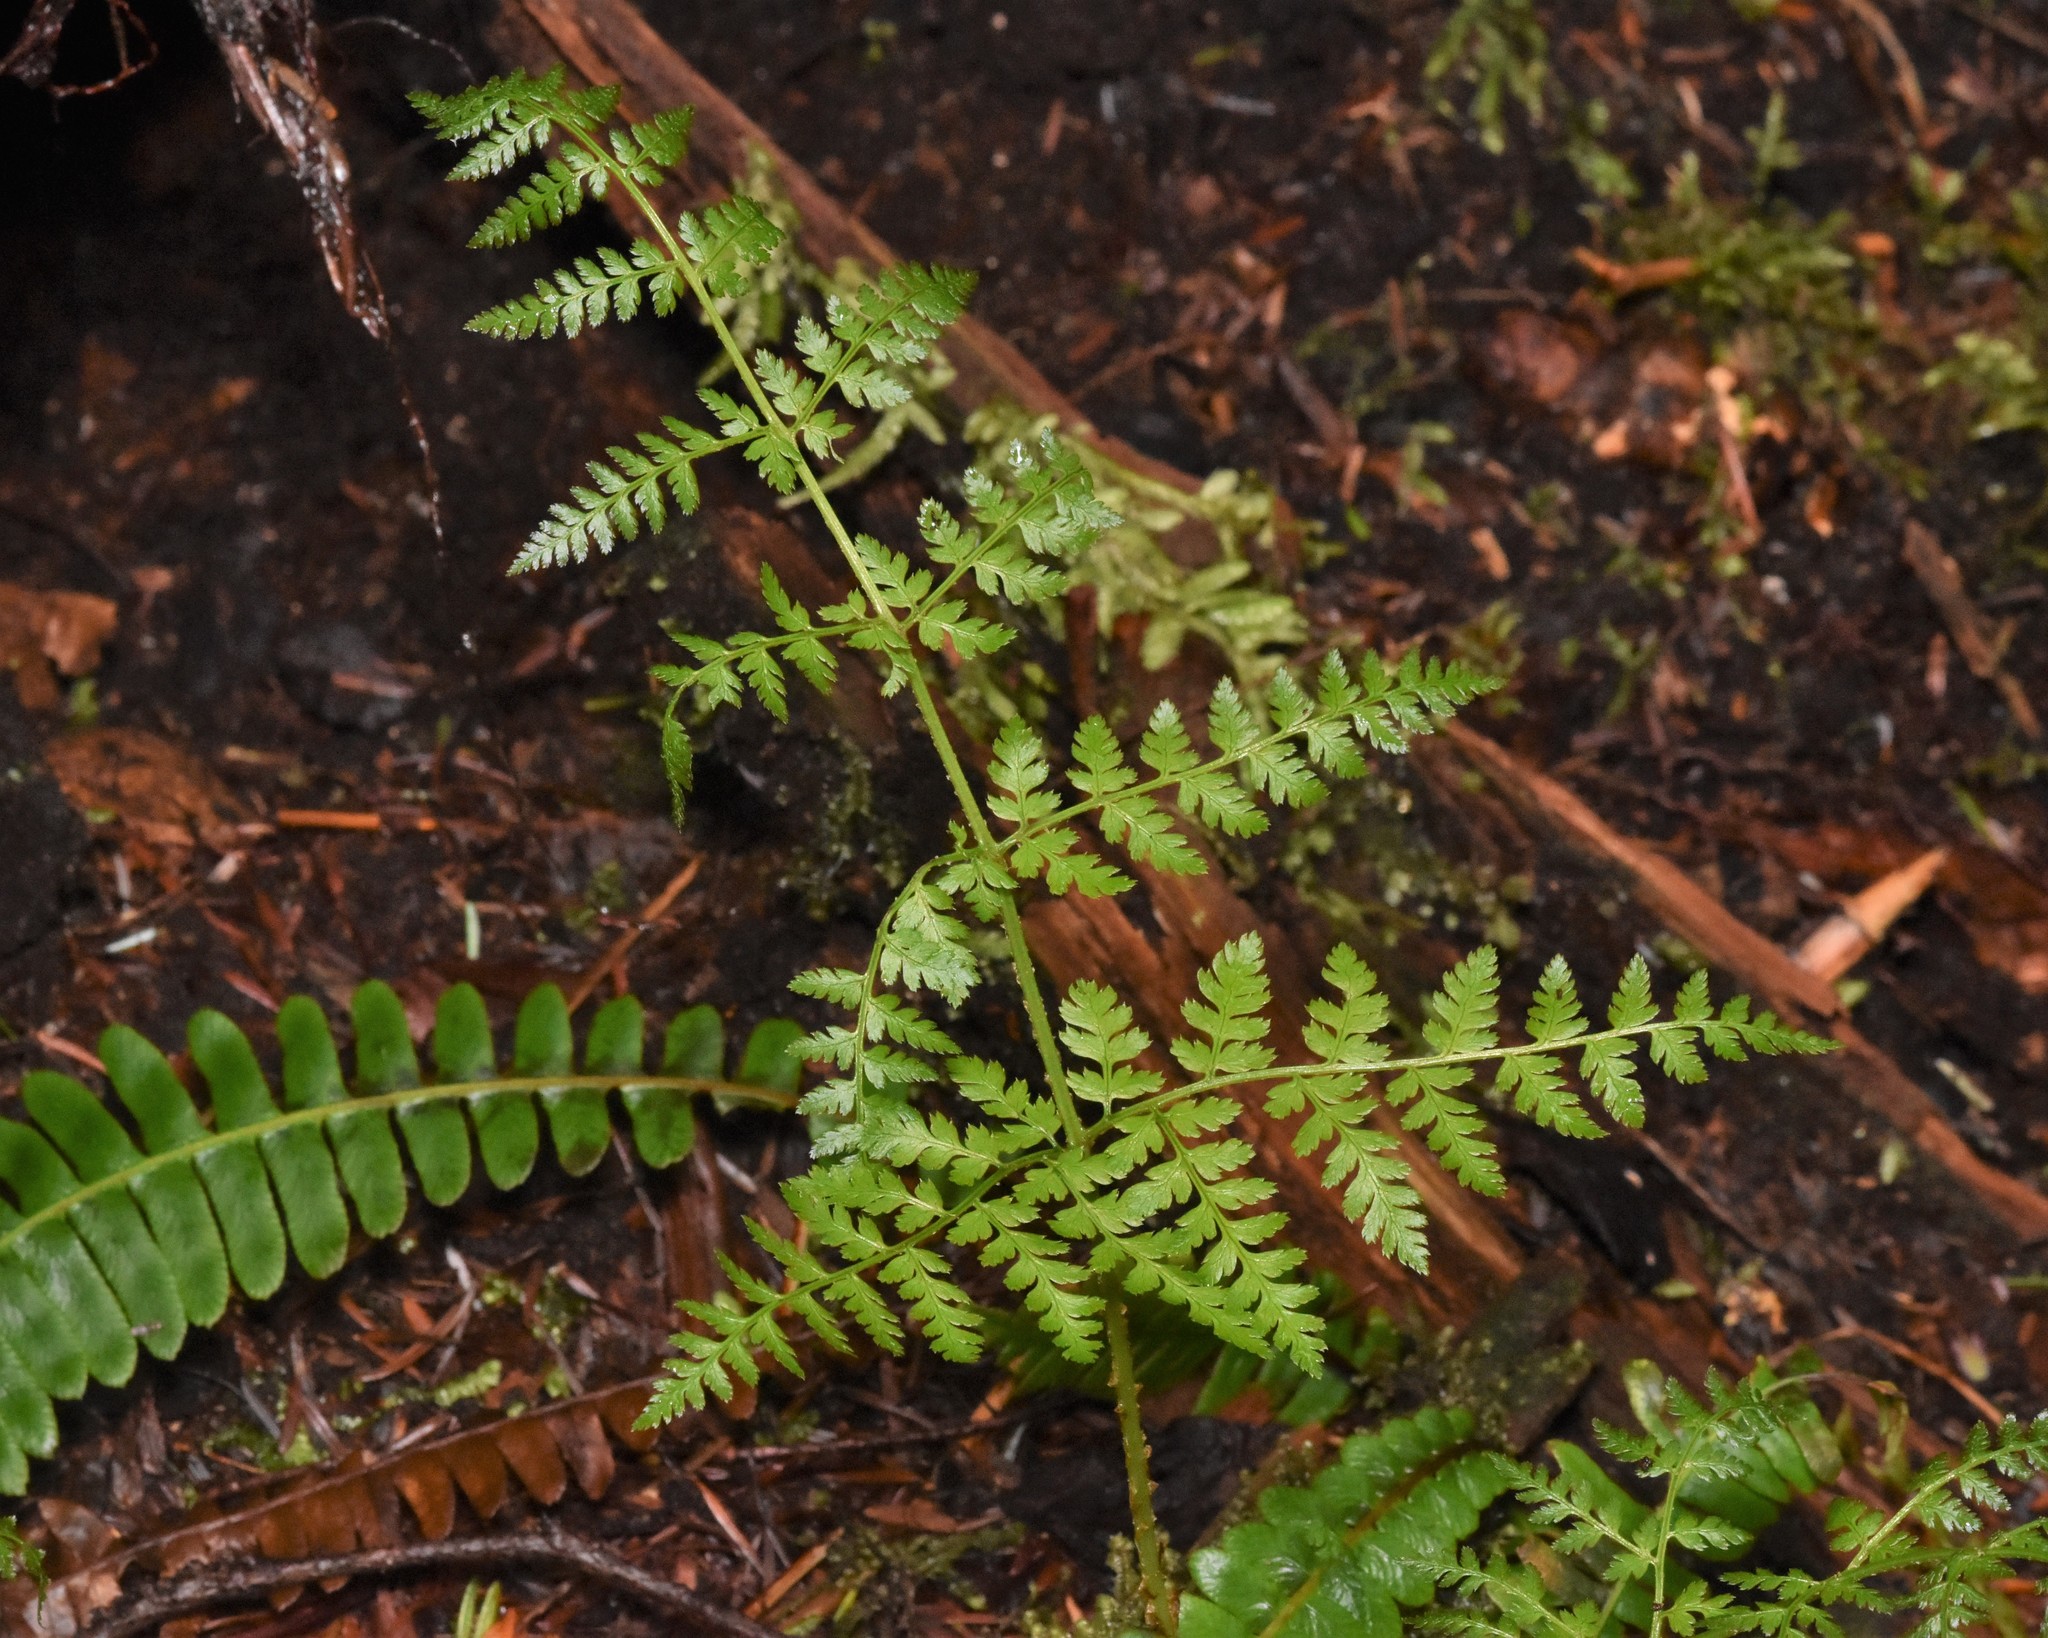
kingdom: Plantae
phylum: Tracheophyta
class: Polypodiopsida
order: Polypodiales
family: Dryopteridaceae
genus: Dryopteris
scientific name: Dryopteris expansa
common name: Northern buckler fern
